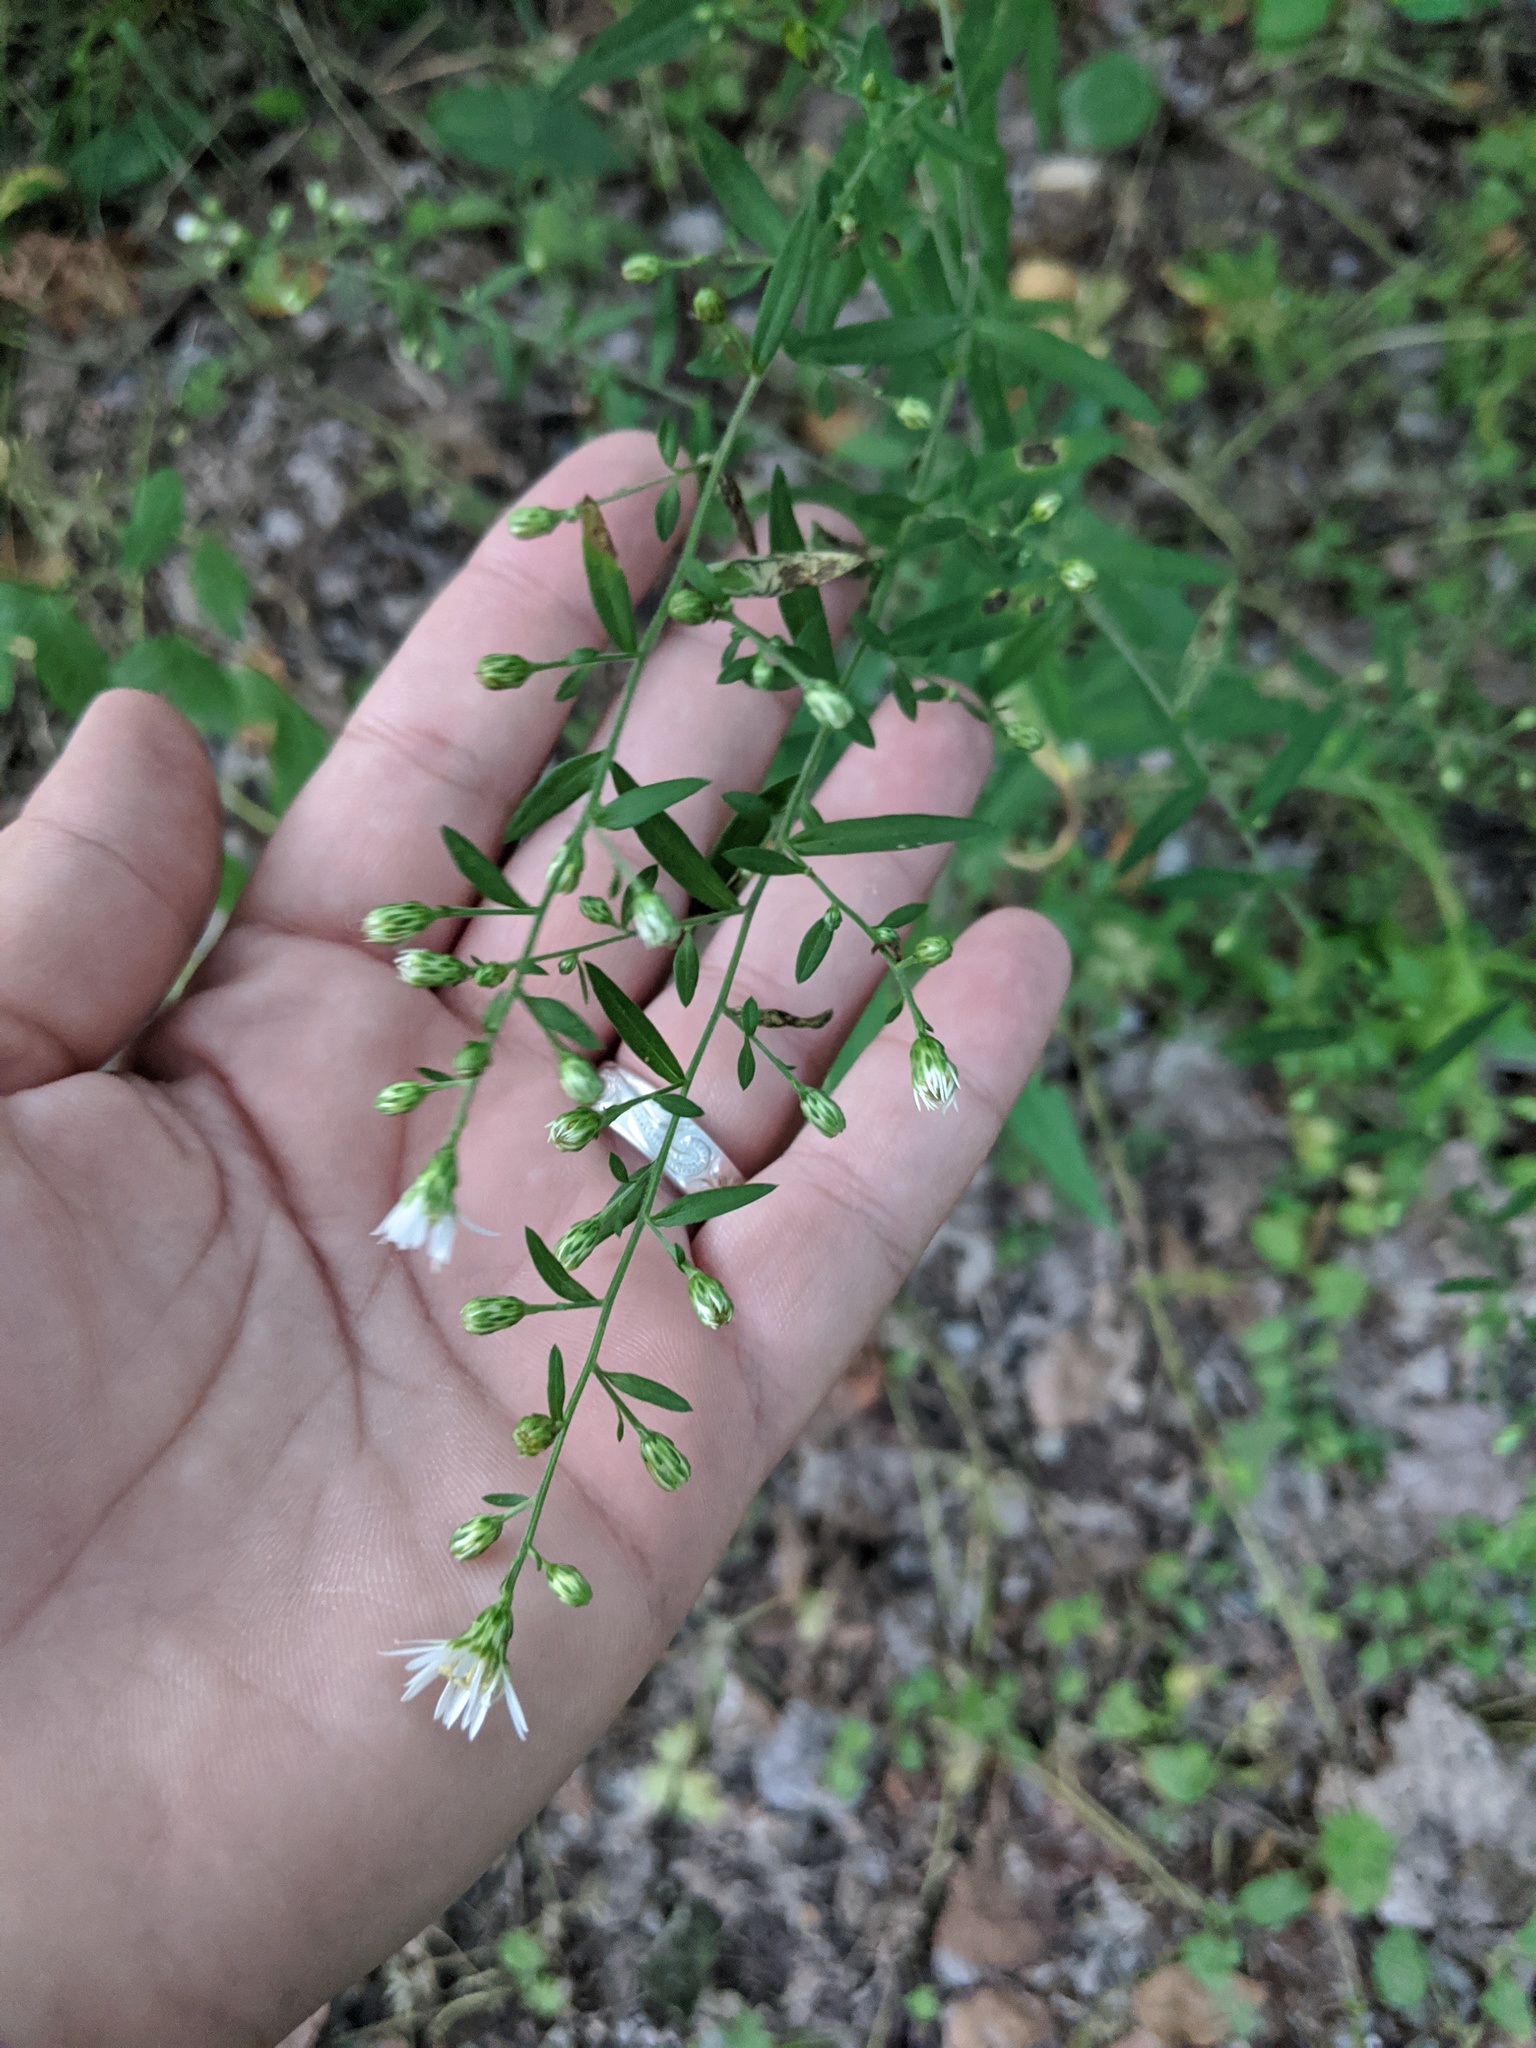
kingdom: Plantae
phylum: Tracheophyta
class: Magnoliopsida
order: Asterales
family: Asteraceae
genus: Symphyotrichum
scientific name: Symphyotrichum lateriflorum
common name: Calico aster
